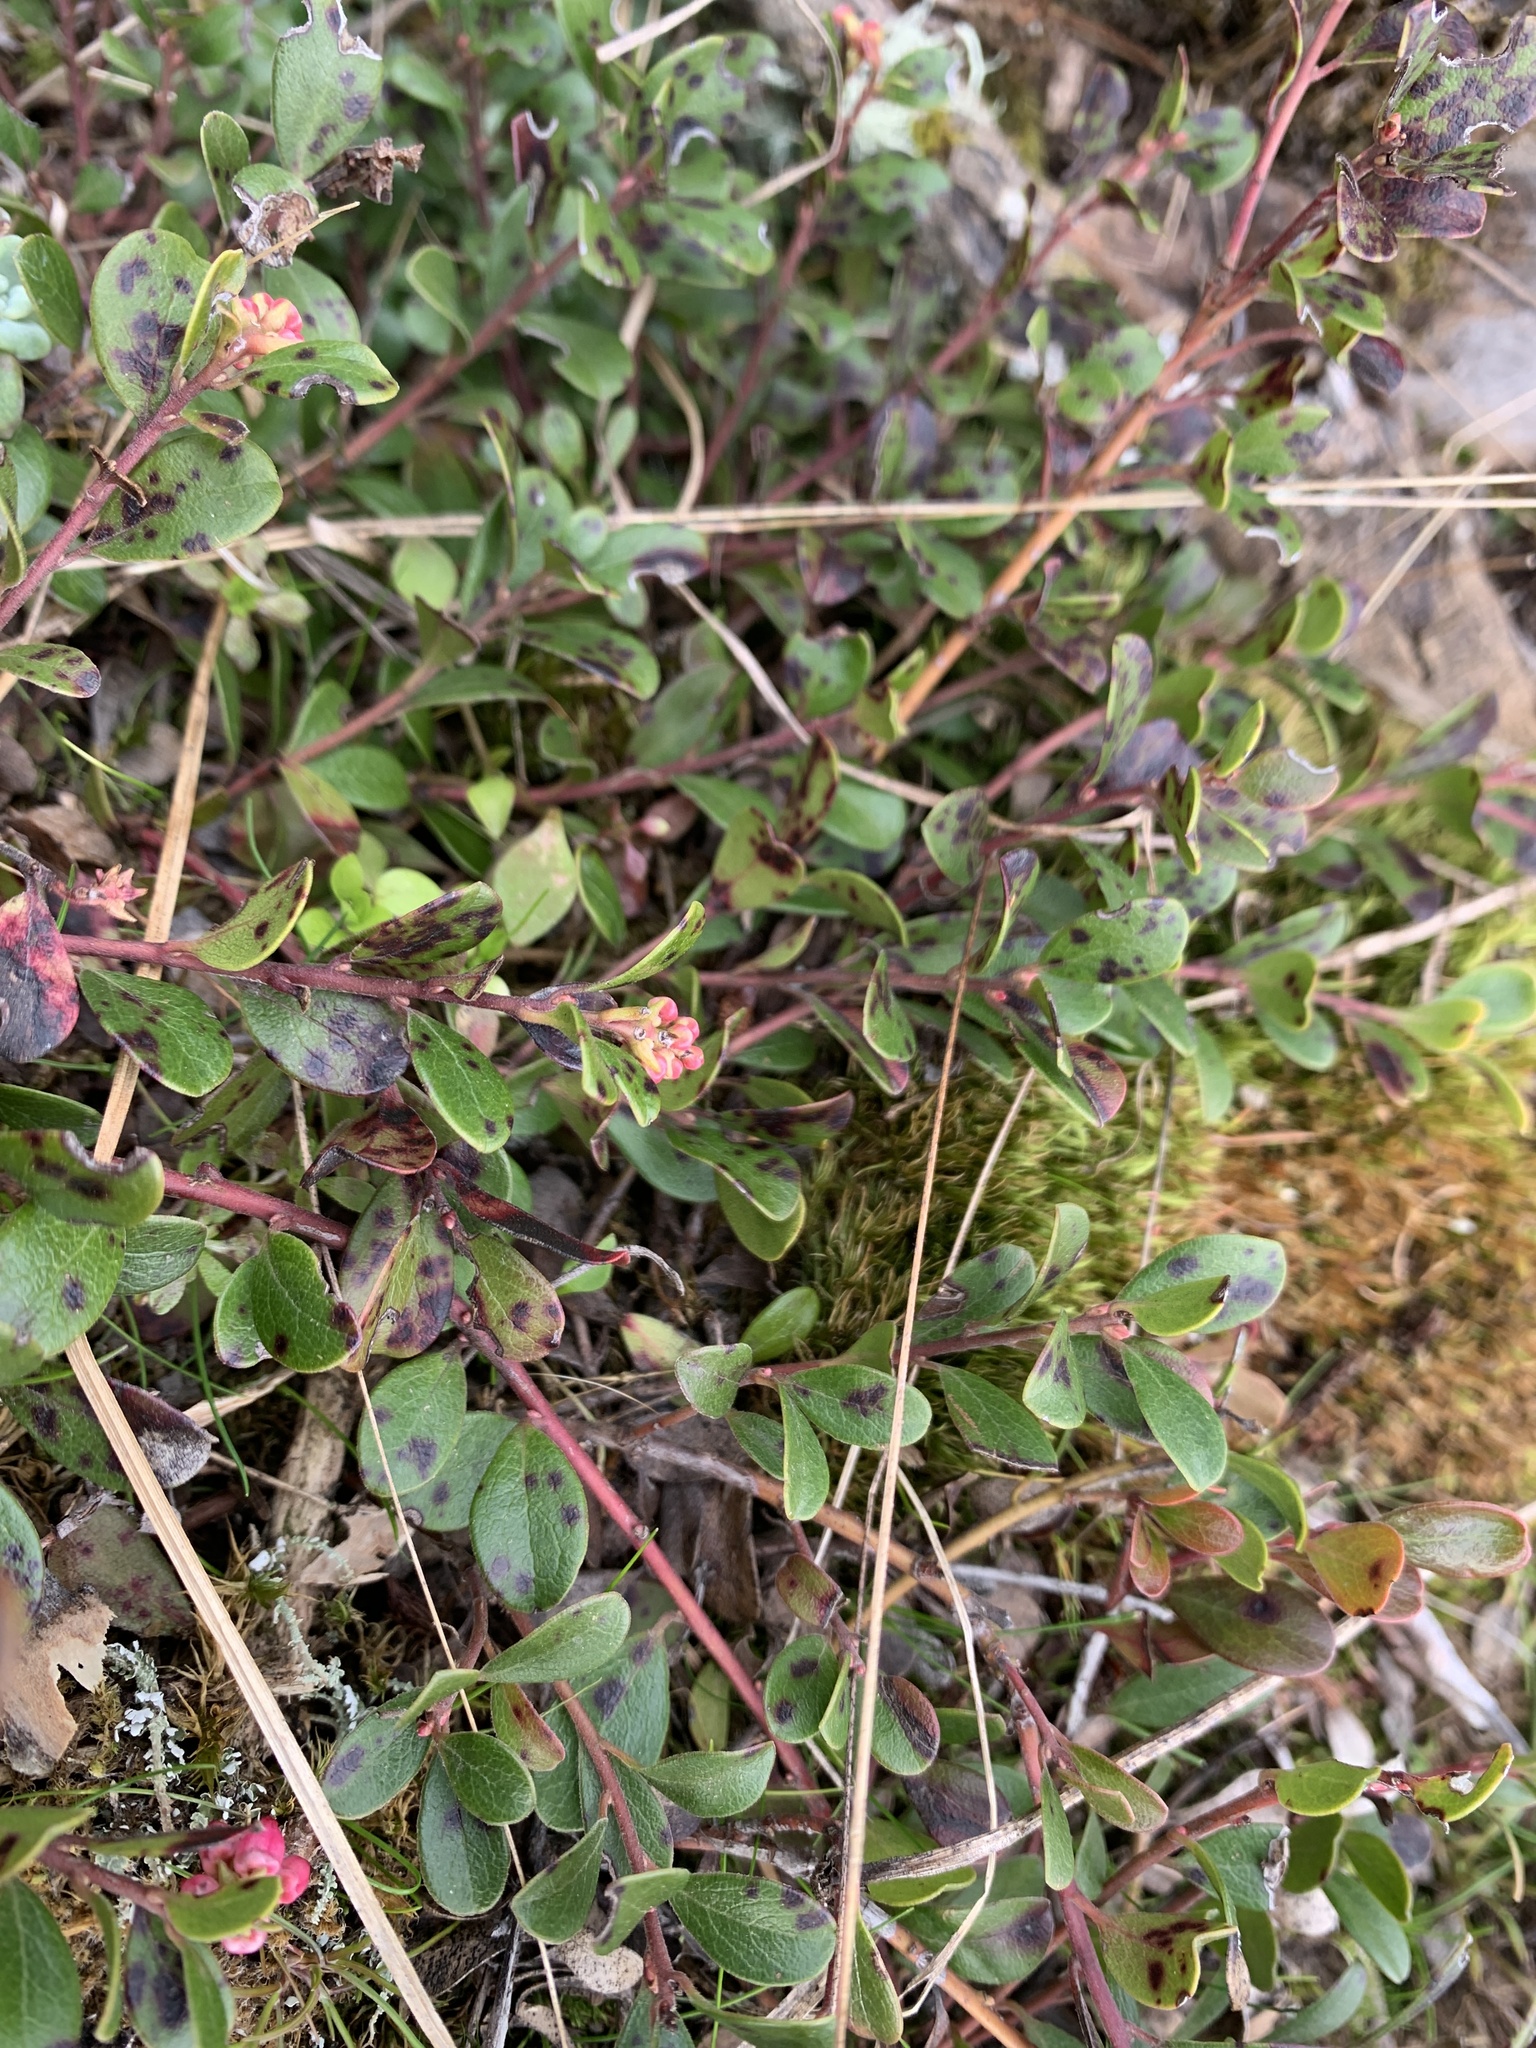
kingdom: Plantae
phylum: Tracheophyta
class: Magnoliopsida
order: Ericales
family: Ericaceae
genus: Arctostaphylos
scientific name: Arctostaphylos uva-ursi
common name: Bearberry
